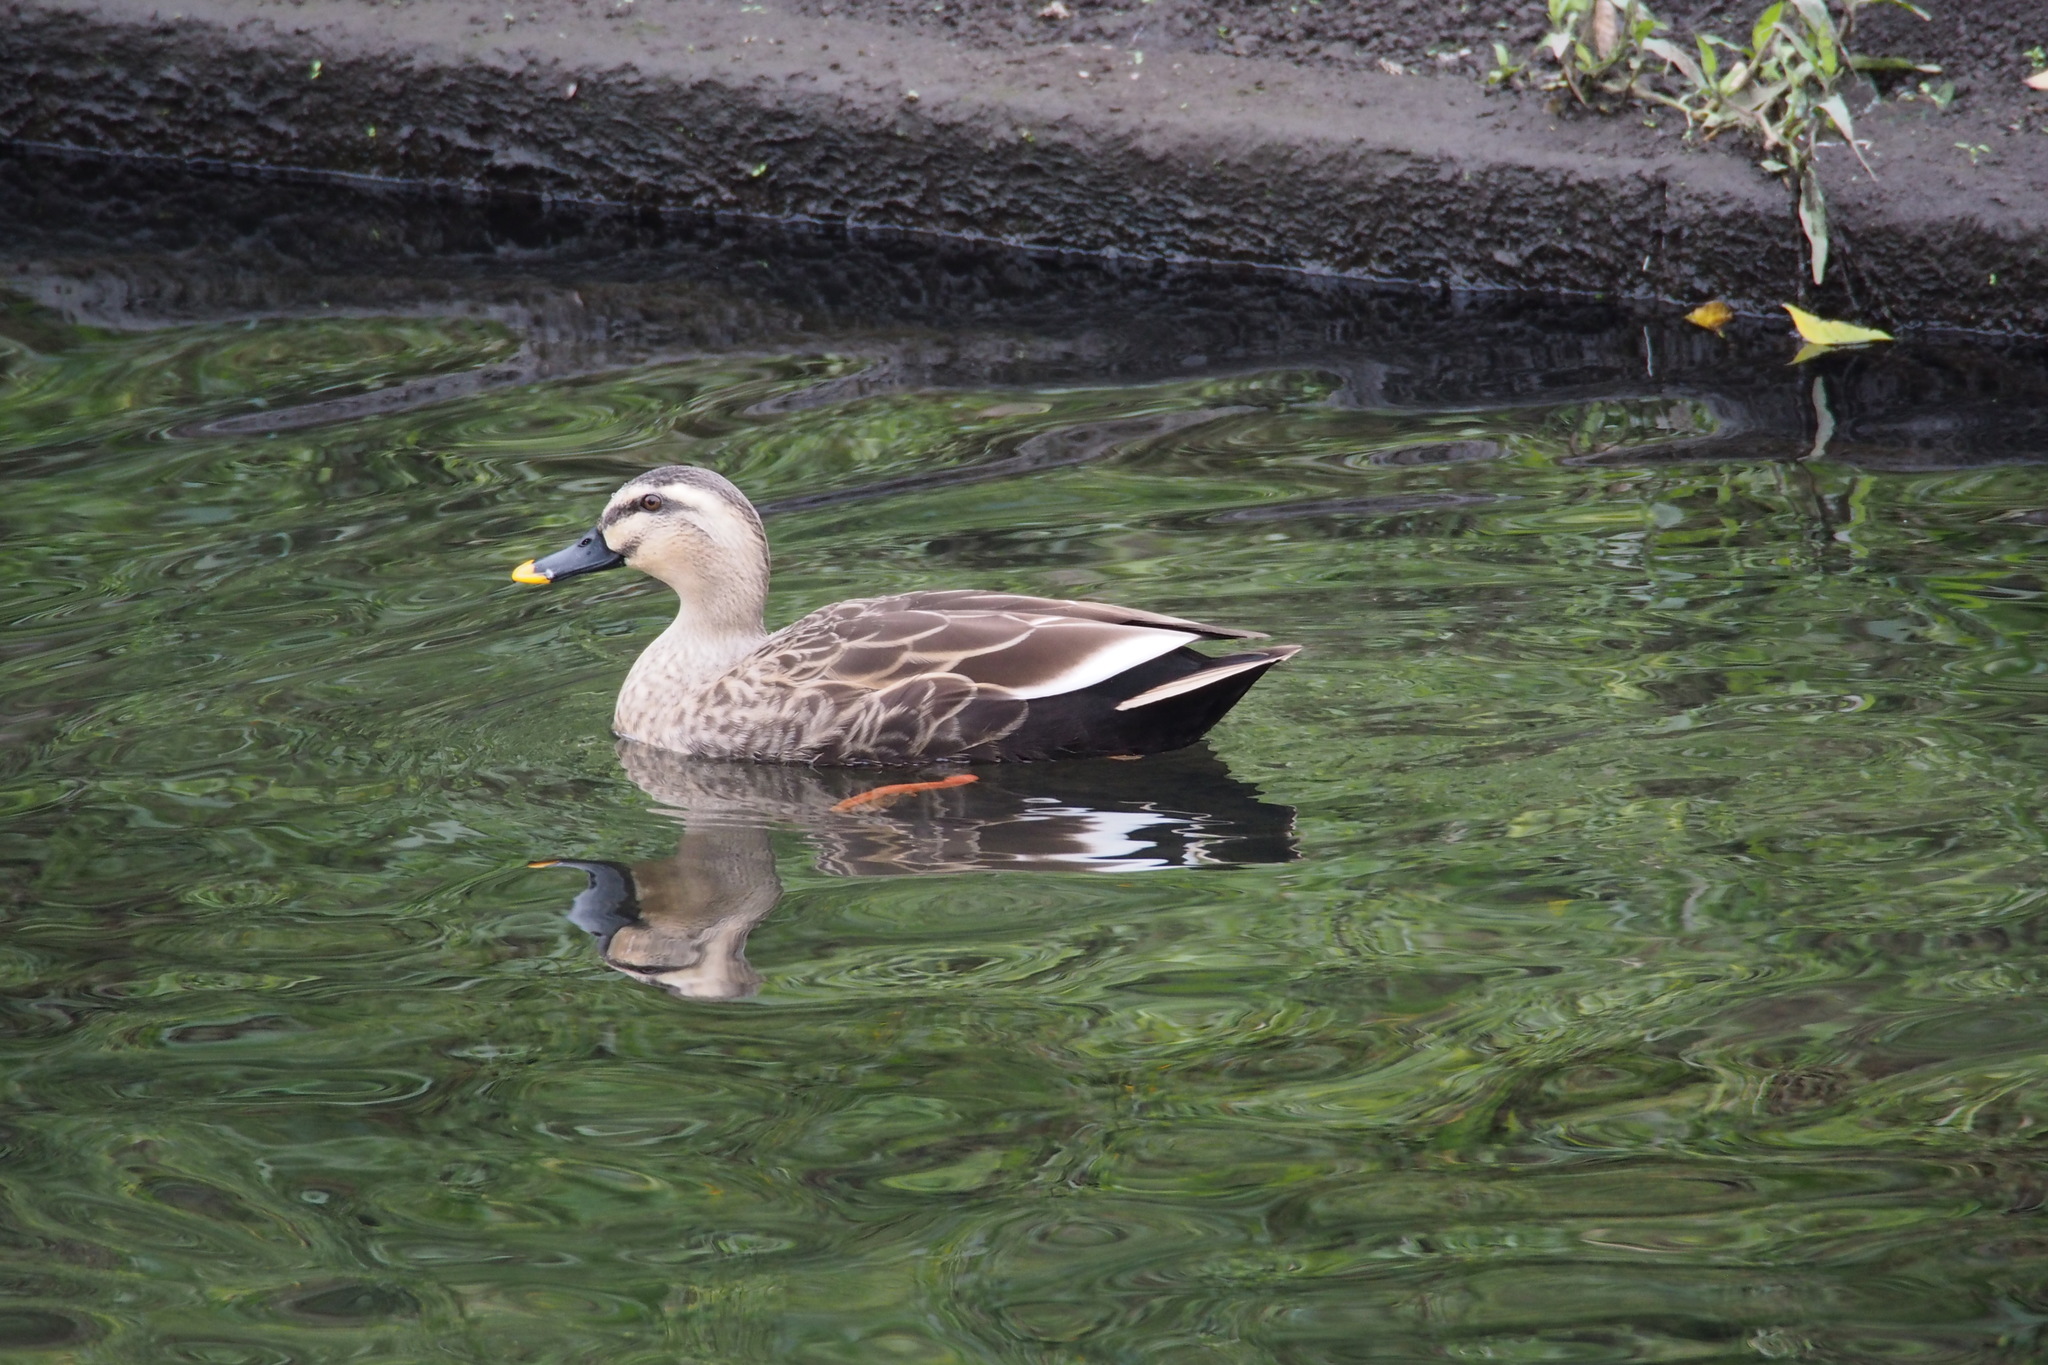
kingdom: Animalia
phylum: Chordata
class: Aves
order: Anseriformes
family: Anatidae
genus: Anas
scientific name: Anas zonorhyncha
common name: Eastern spot-billed duck
